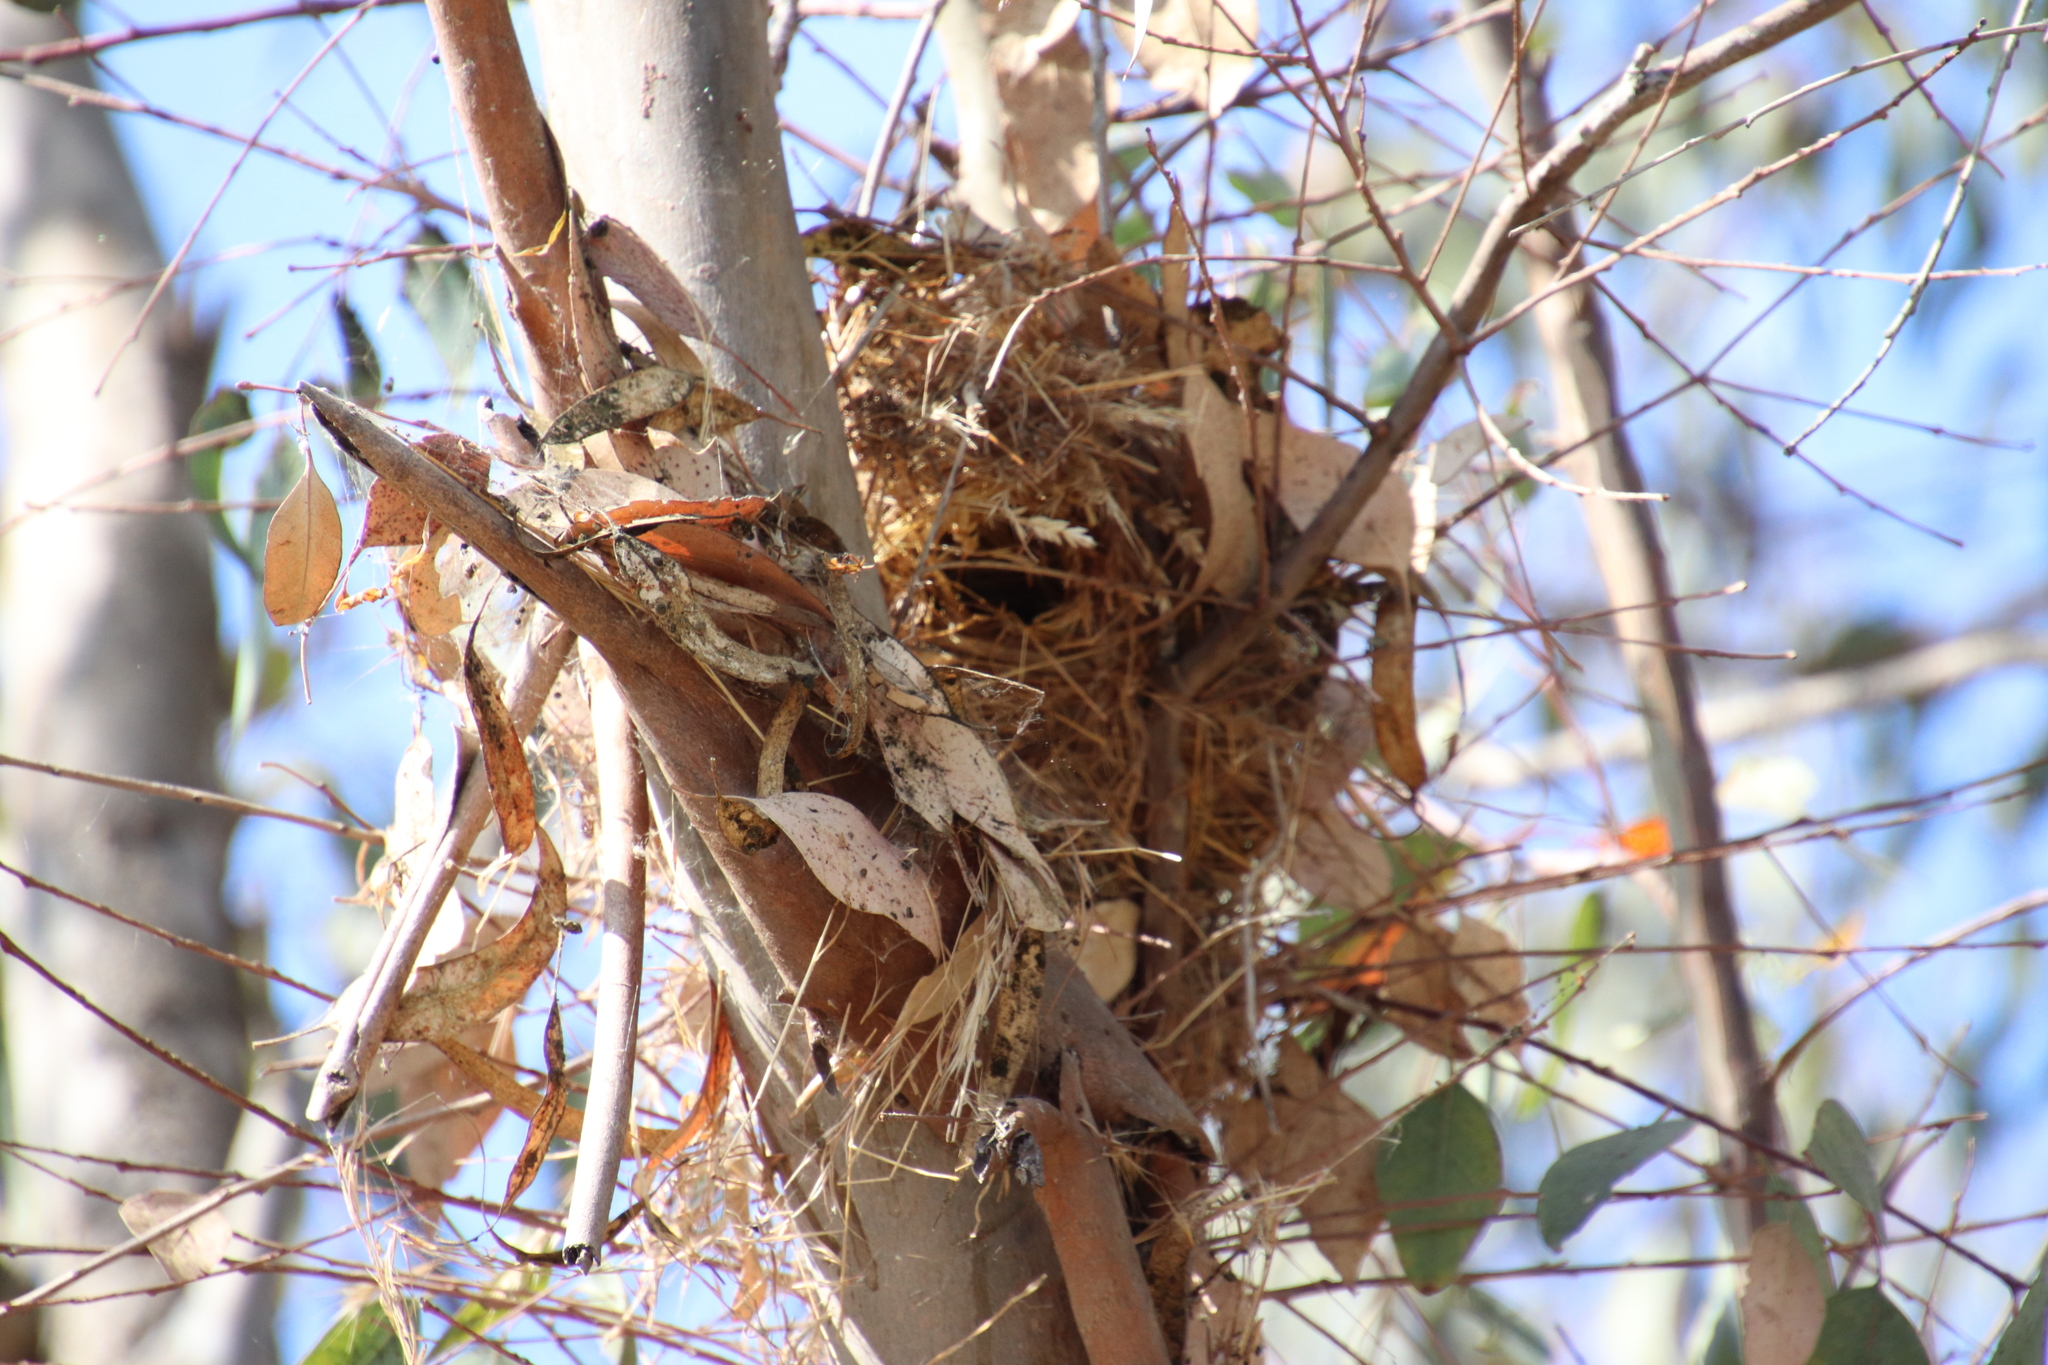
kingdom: Animalia
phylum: Chordata
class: Aves
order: Passeriformes
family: Estrildidae
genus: Lonchura
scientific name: Lonchura punctulata
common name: Scaly-breasted munia
